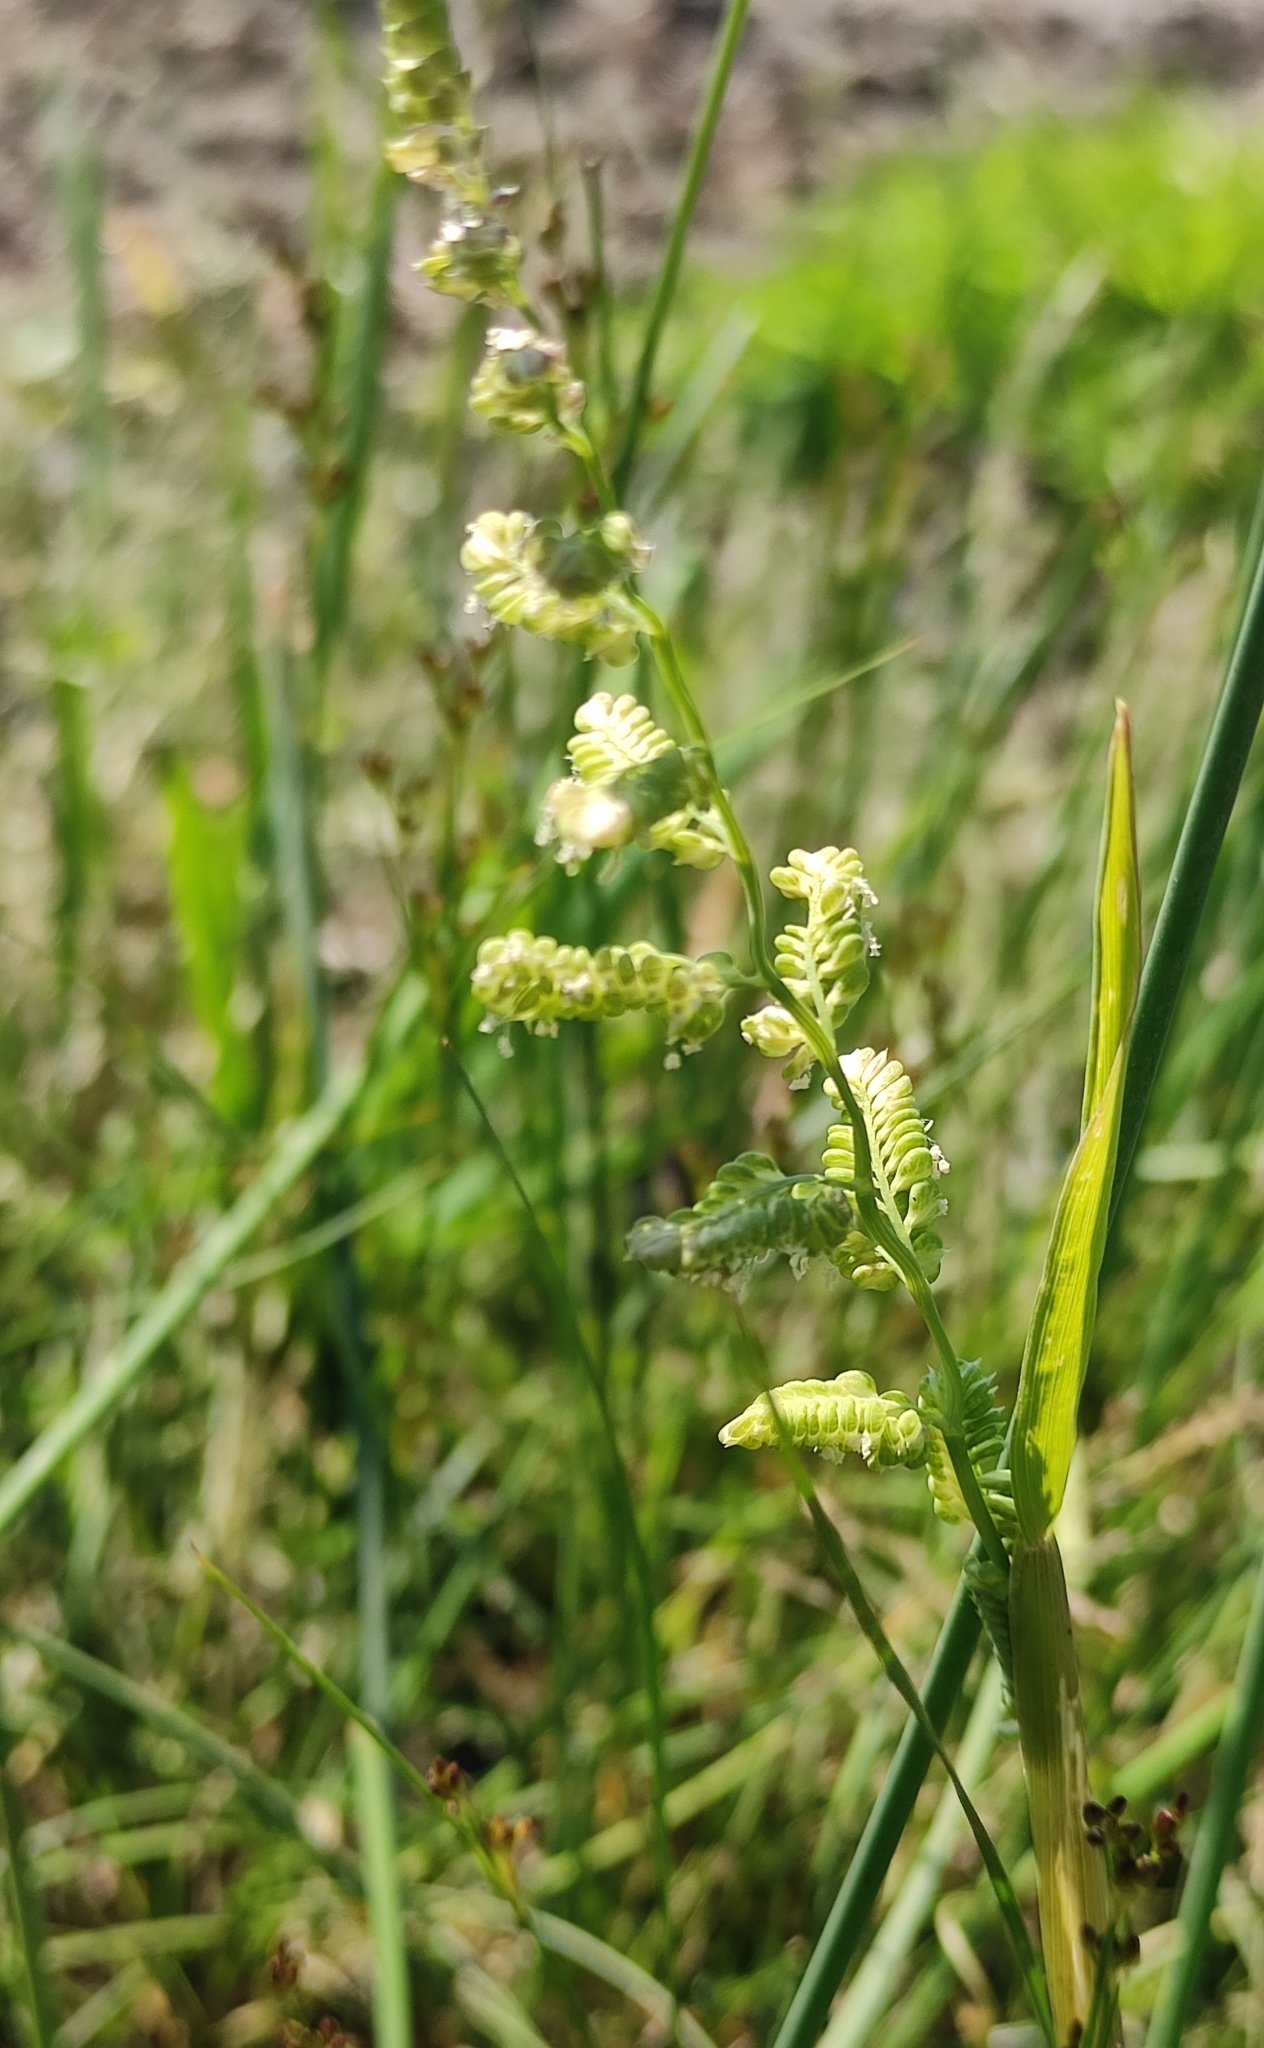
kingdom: Plantae
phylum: Tracheophyta
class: Liliopsida
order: Poales
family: Poaceae
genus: Beckmannia
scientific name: Beckmannia syzigachne
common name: American slough-grass
